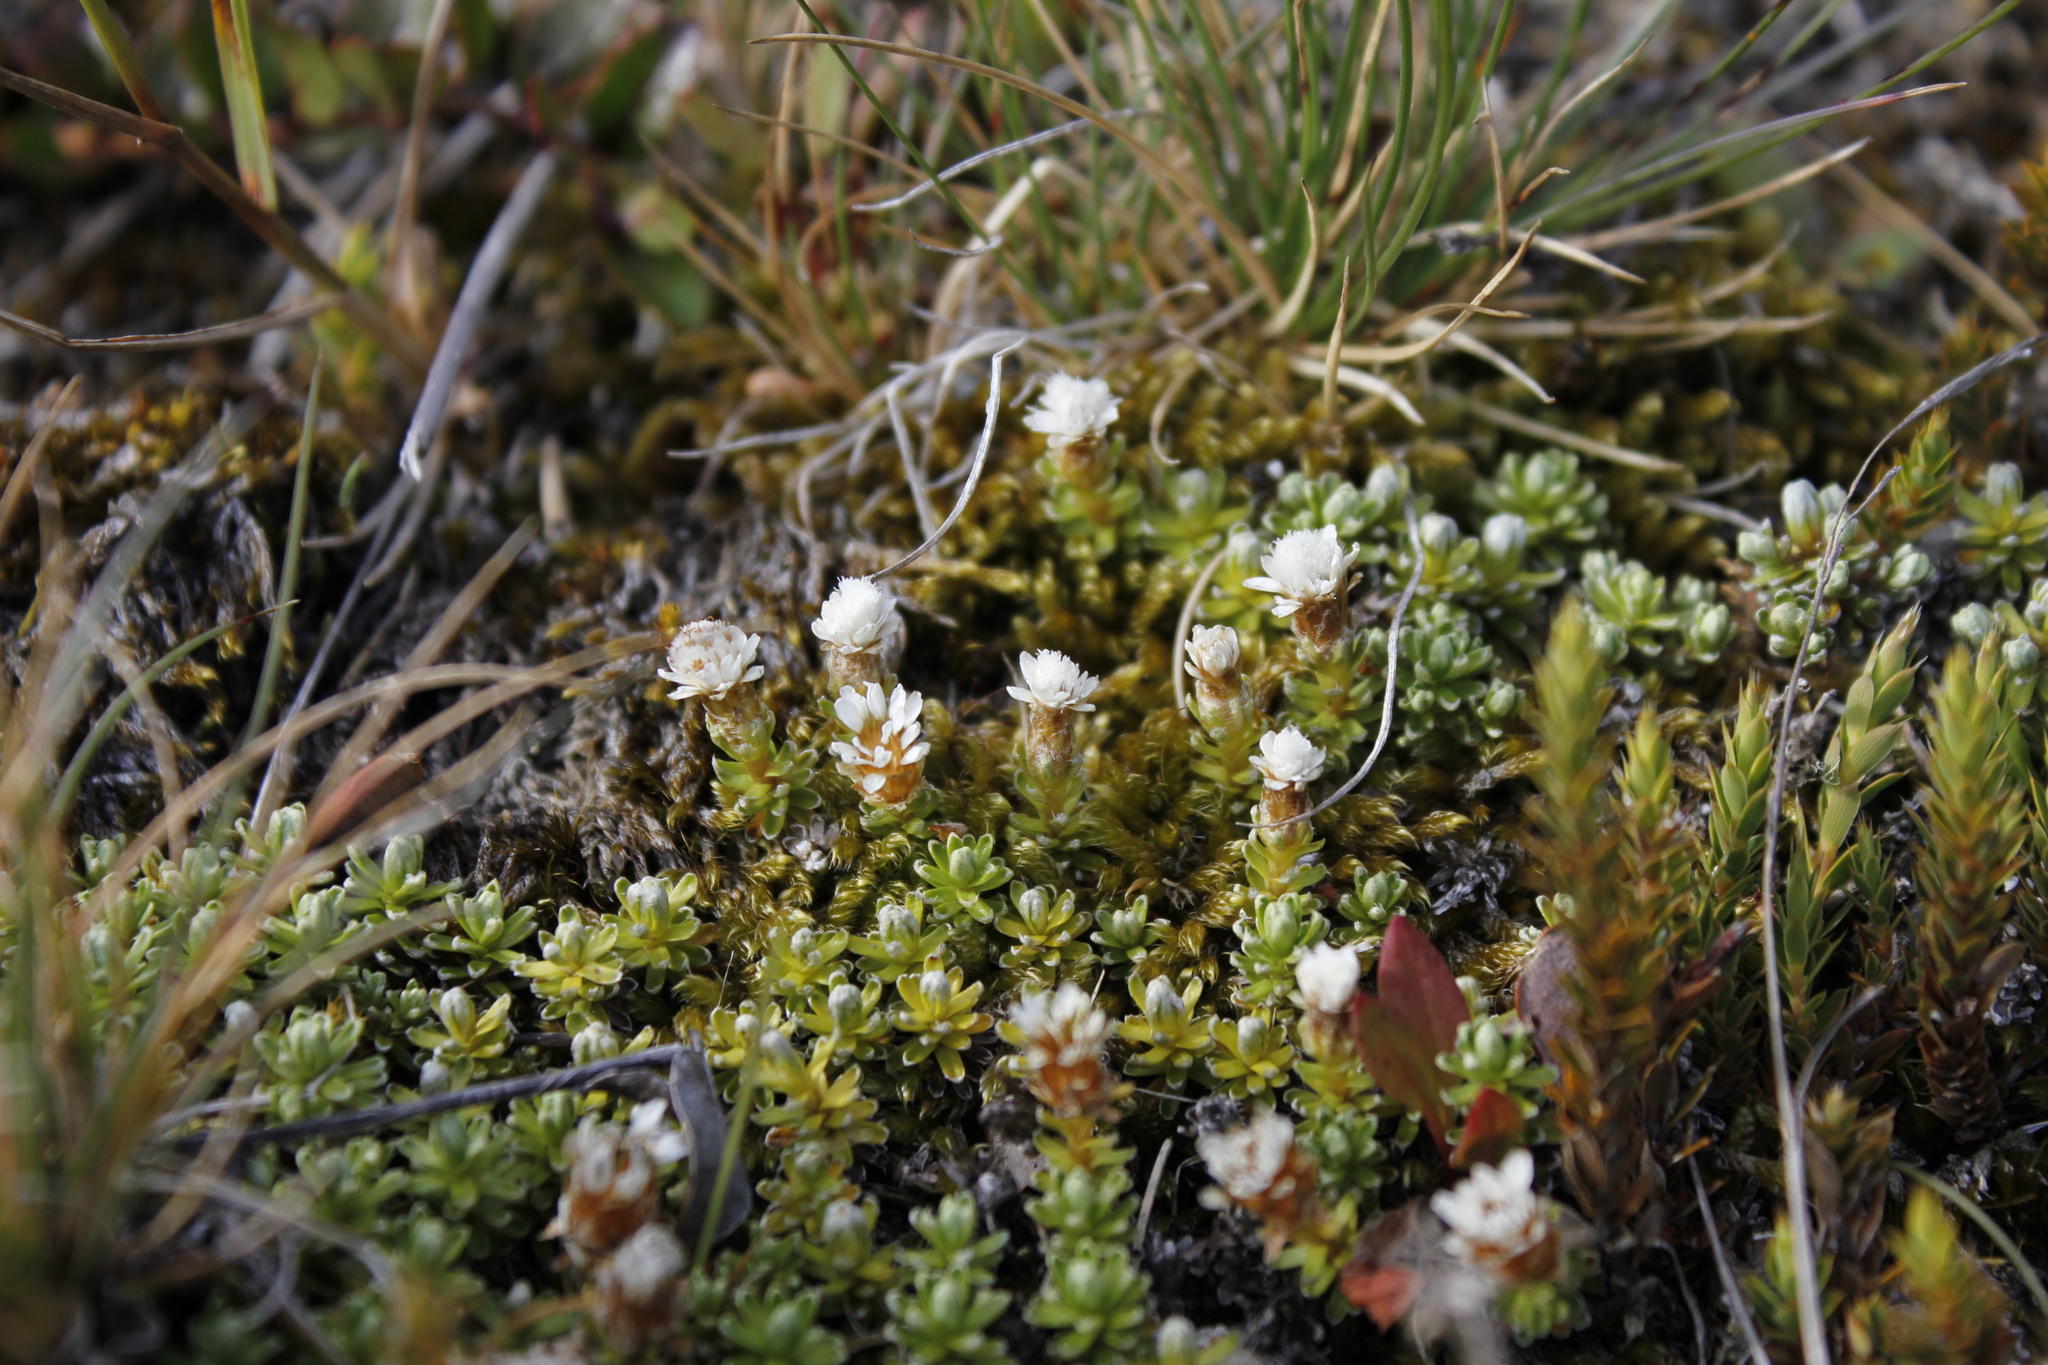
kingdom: Plantae
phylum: Tracheophyta
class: Magnoliopsida
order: Asterales
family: Asteraceae
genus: Raoulia
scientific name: Raoulia subsericea
